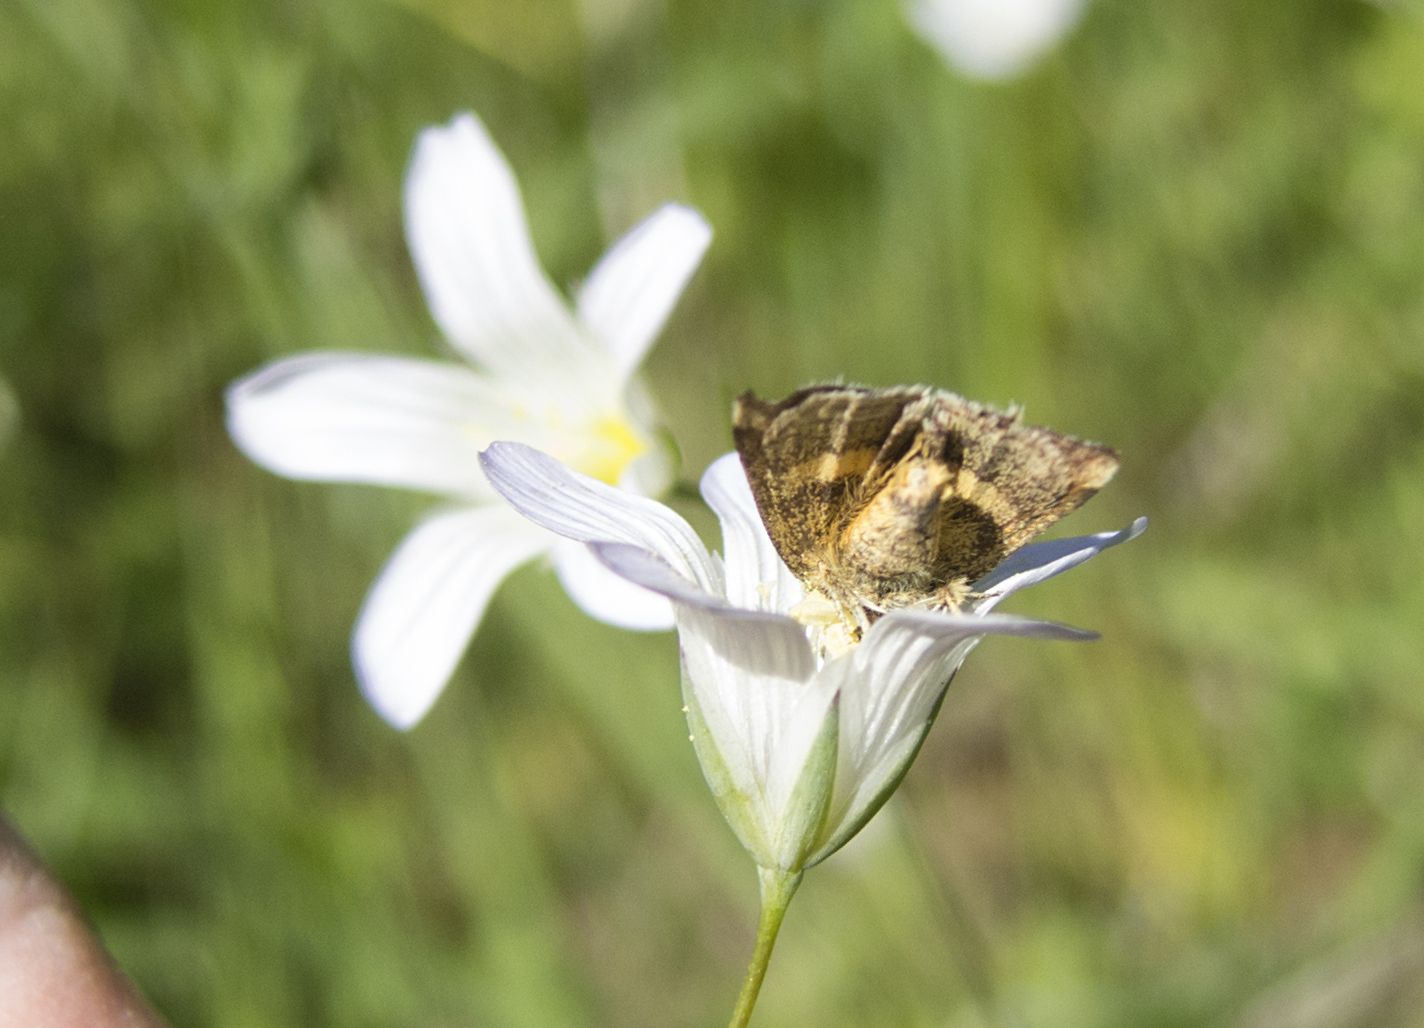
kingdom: Animalia
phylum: Arthropoda
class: Insecta
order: Lepidoptera
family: Noctuidae
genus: Panemeria
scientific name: Panemeria tenebrata
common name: Small yellow underwing
